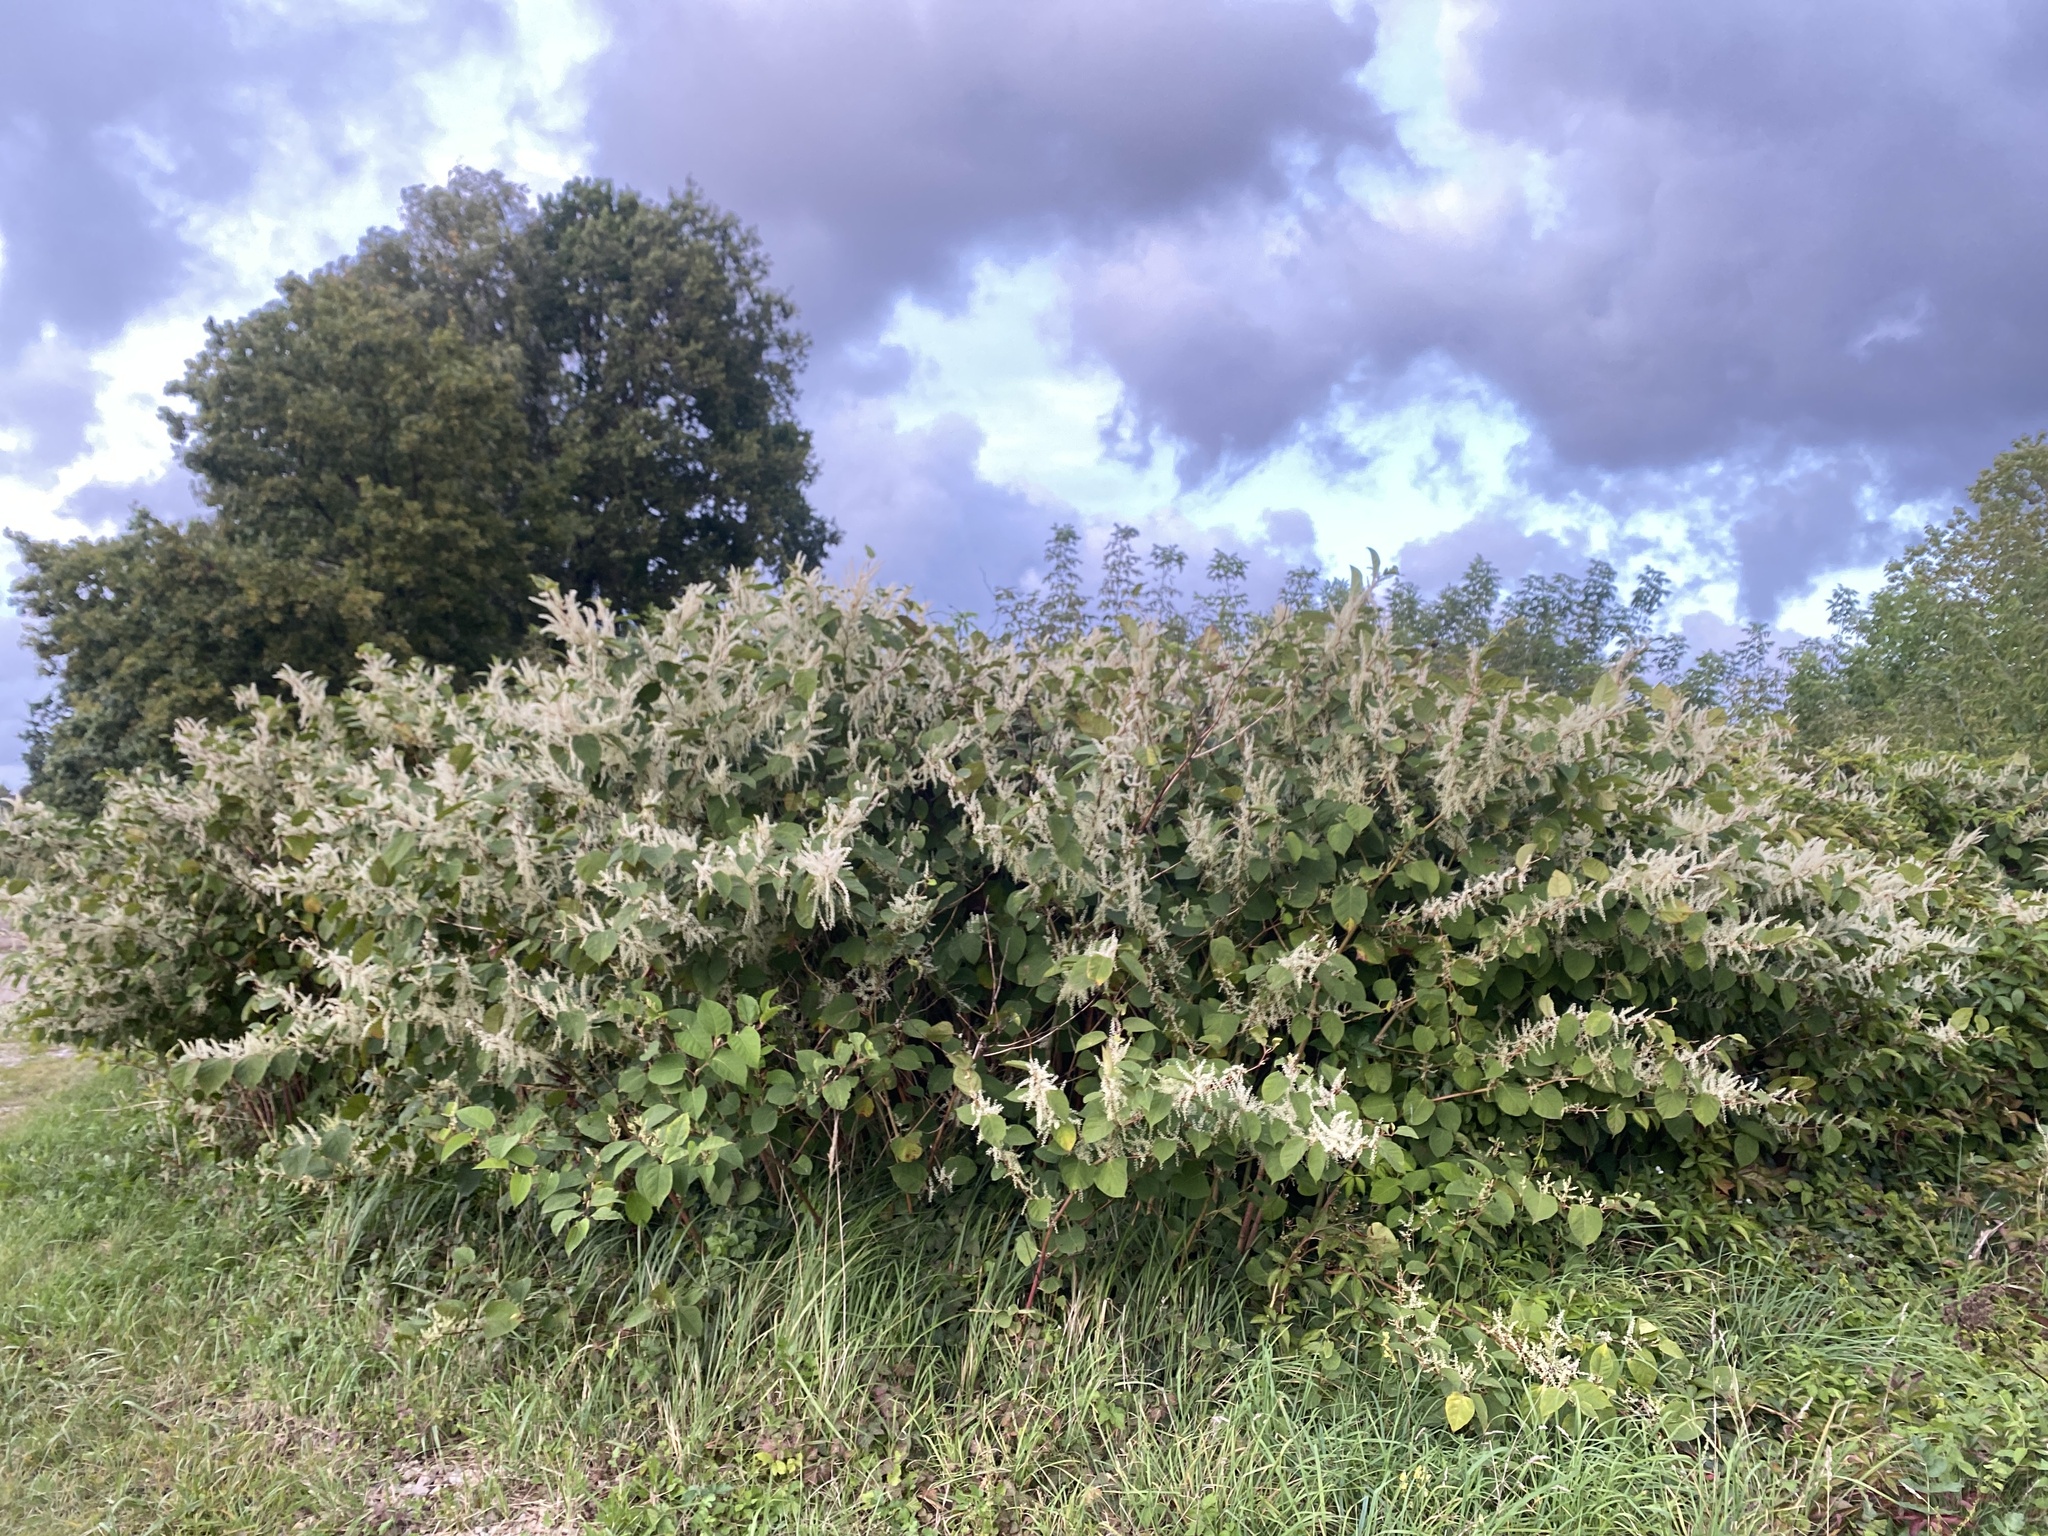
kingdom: Plantae
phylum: Tracheophyta
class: Magnoliopsida
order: Caryophyllales
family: Polygonaceae
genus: Reynoutria
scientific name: Reynoutria japonica
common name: Japanese knotweed
